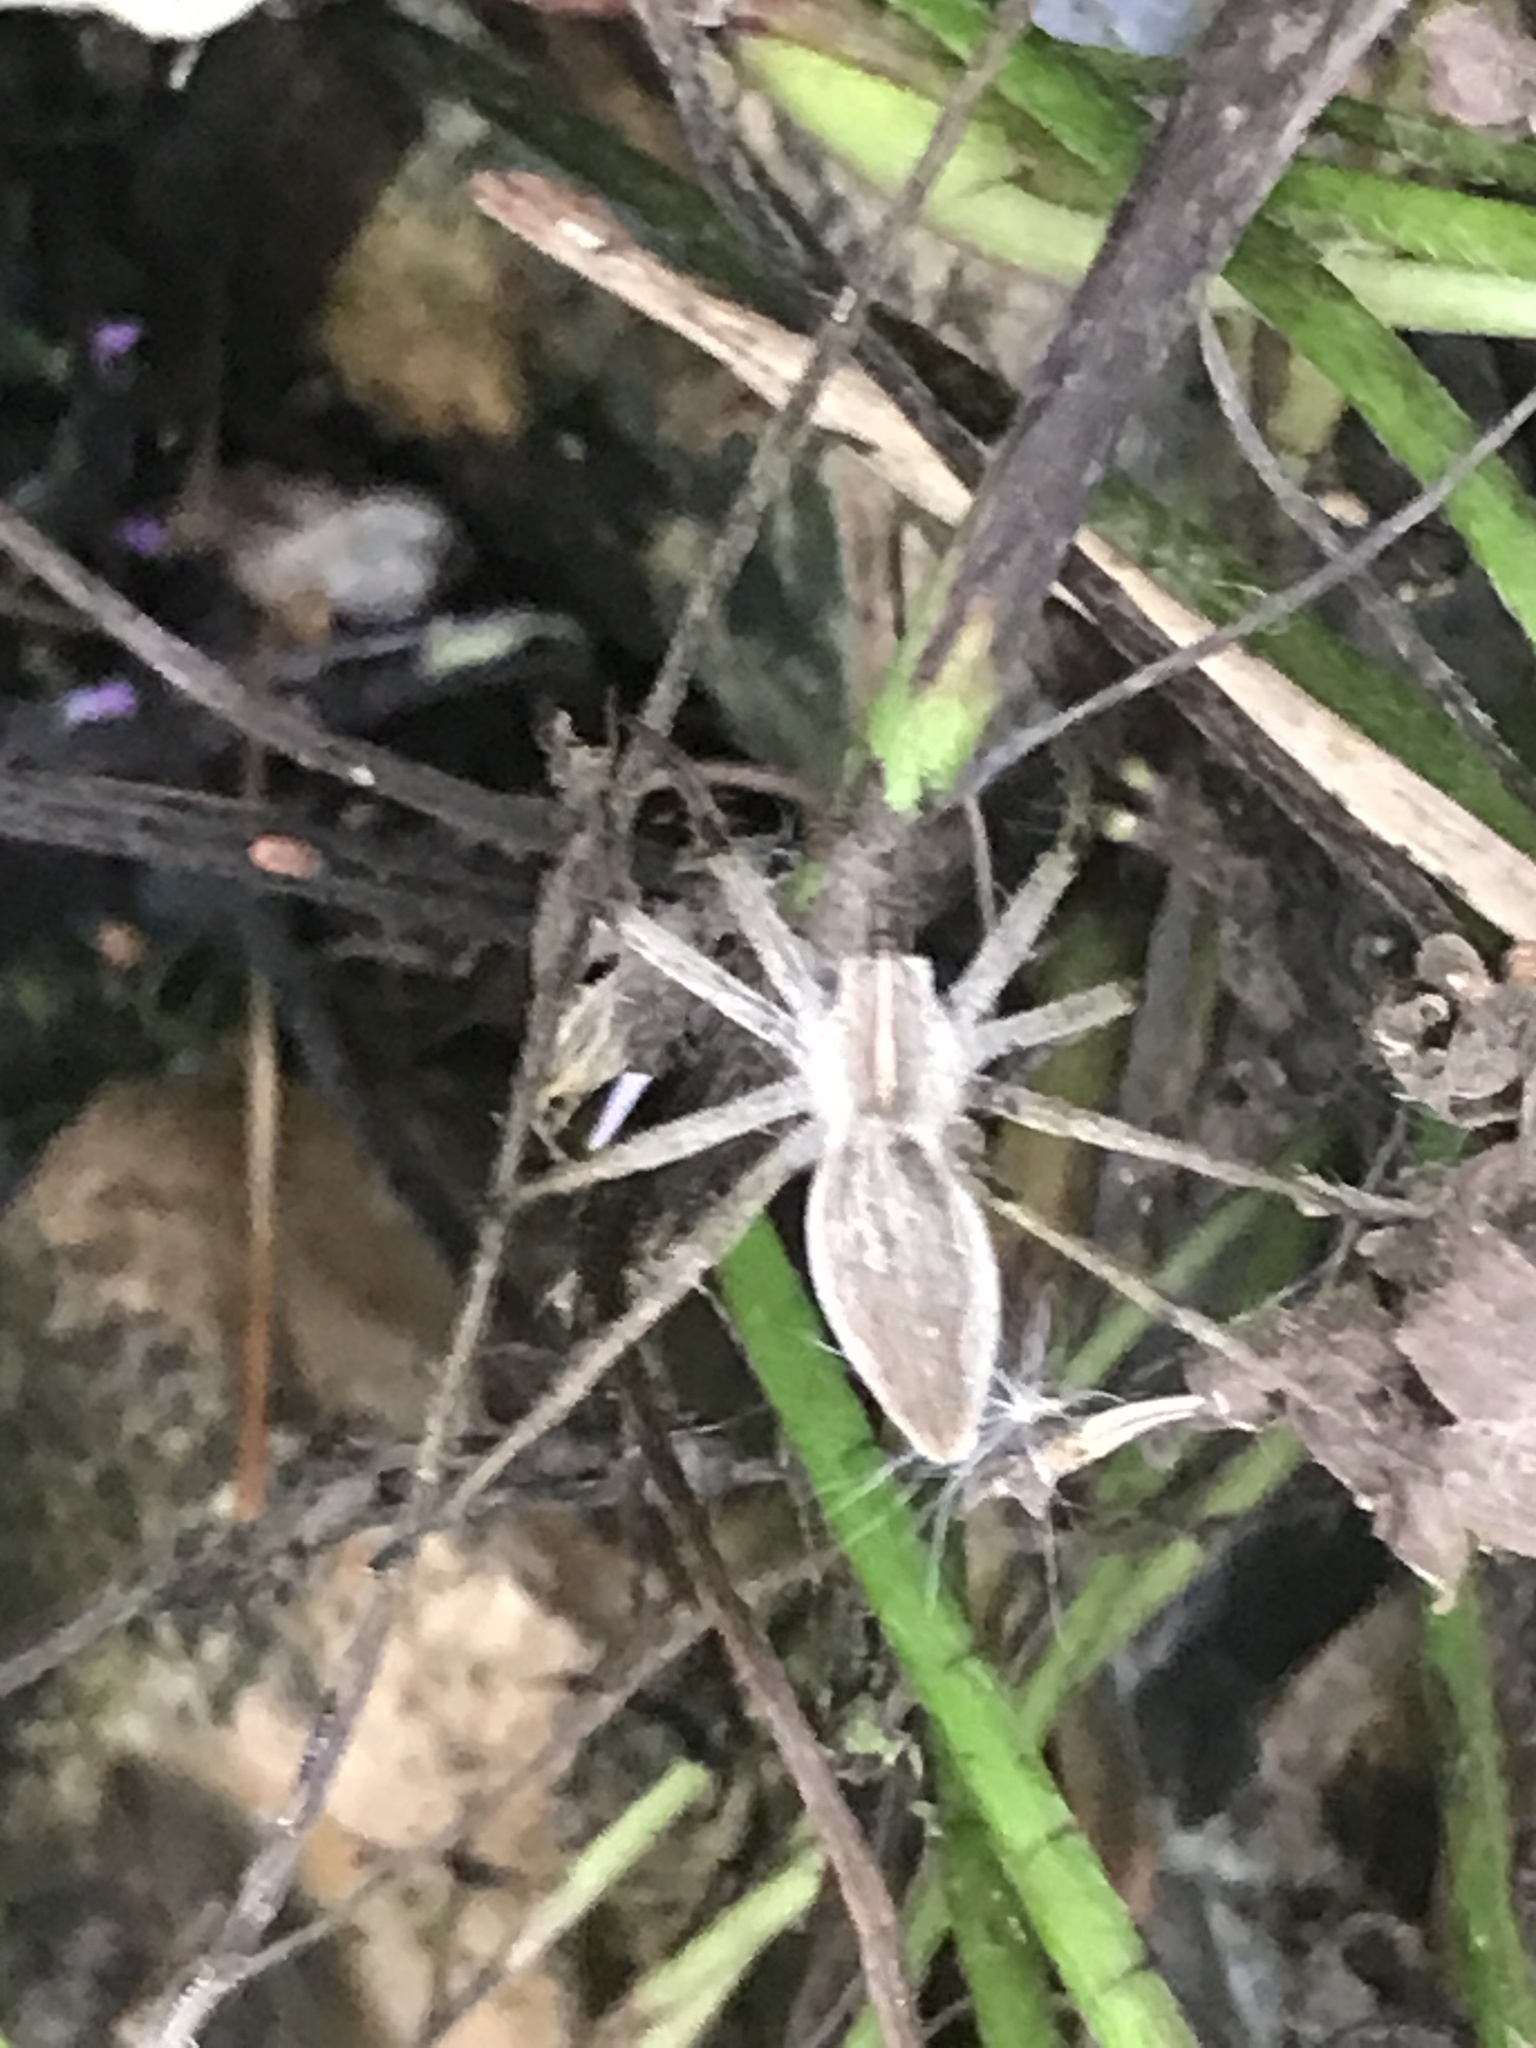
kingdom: Animalia
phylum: Arthropoda
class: Arachnida
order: Araneae
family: Pisauridae
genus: Pisaura
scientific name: Pisaura mirabilis
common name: Tent spider
